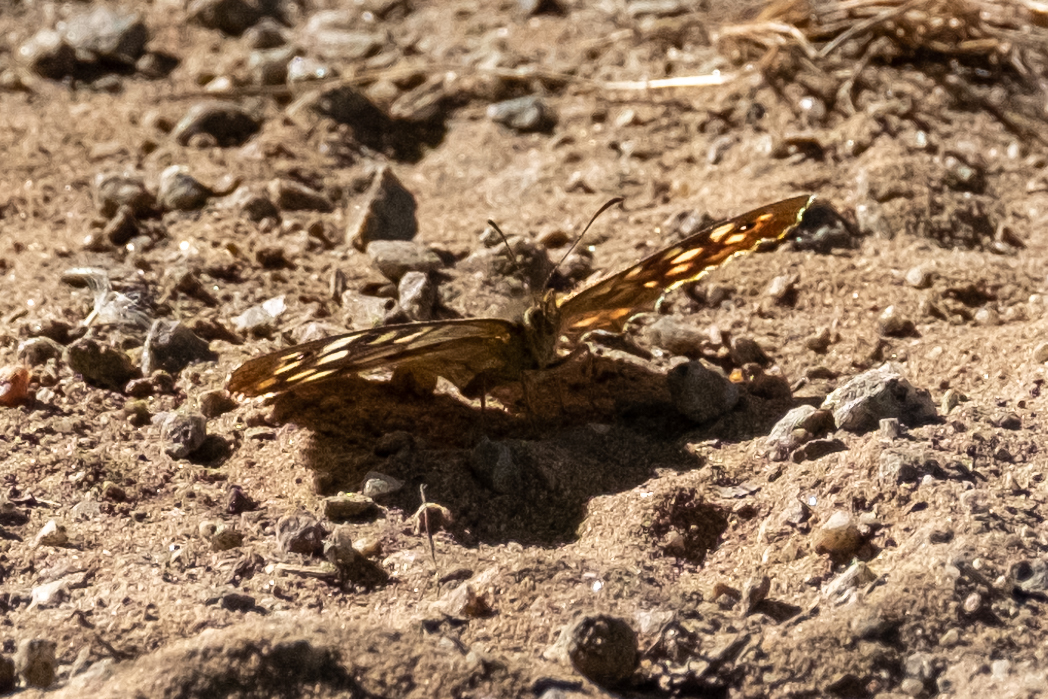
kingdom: Animalia
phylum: Arthropoda
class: Insecta
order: Lepidoptera
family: Nymphalidae
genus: Pararge
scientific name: Pararge aegeria
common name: Speckled wood
